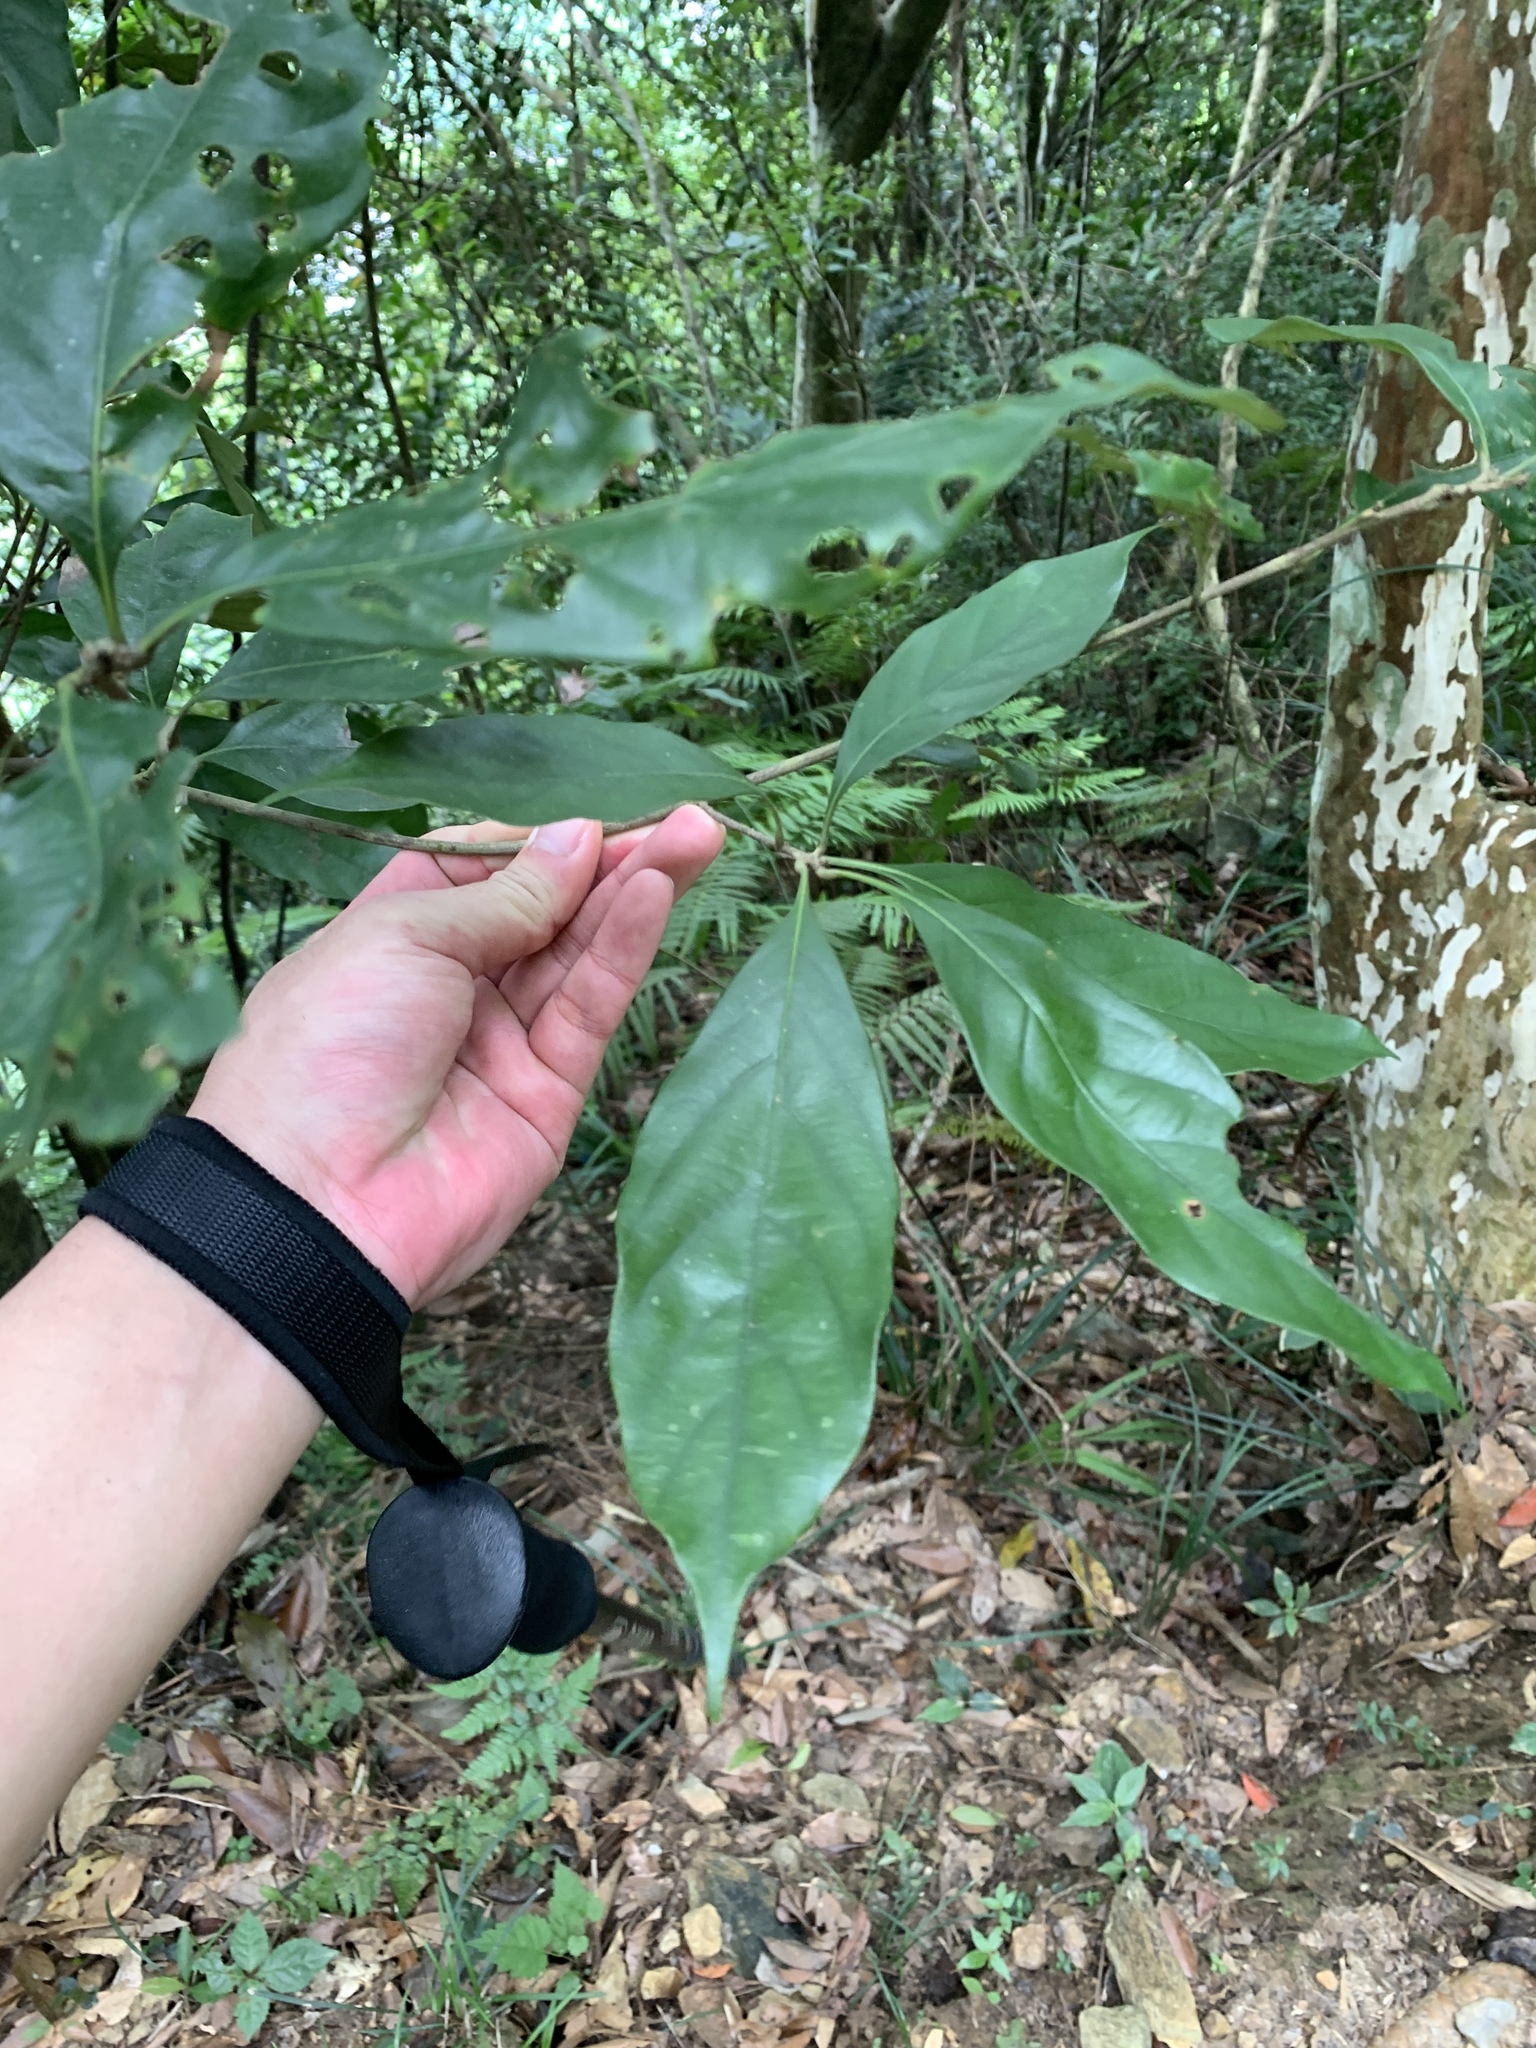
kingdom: Plantae
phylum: Tracheophyta
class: Magnoliopsida
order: Fagales
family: Fagaceae
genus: Lithocarpus
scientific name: Lithocarpus glaber
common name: Japanese-oak
